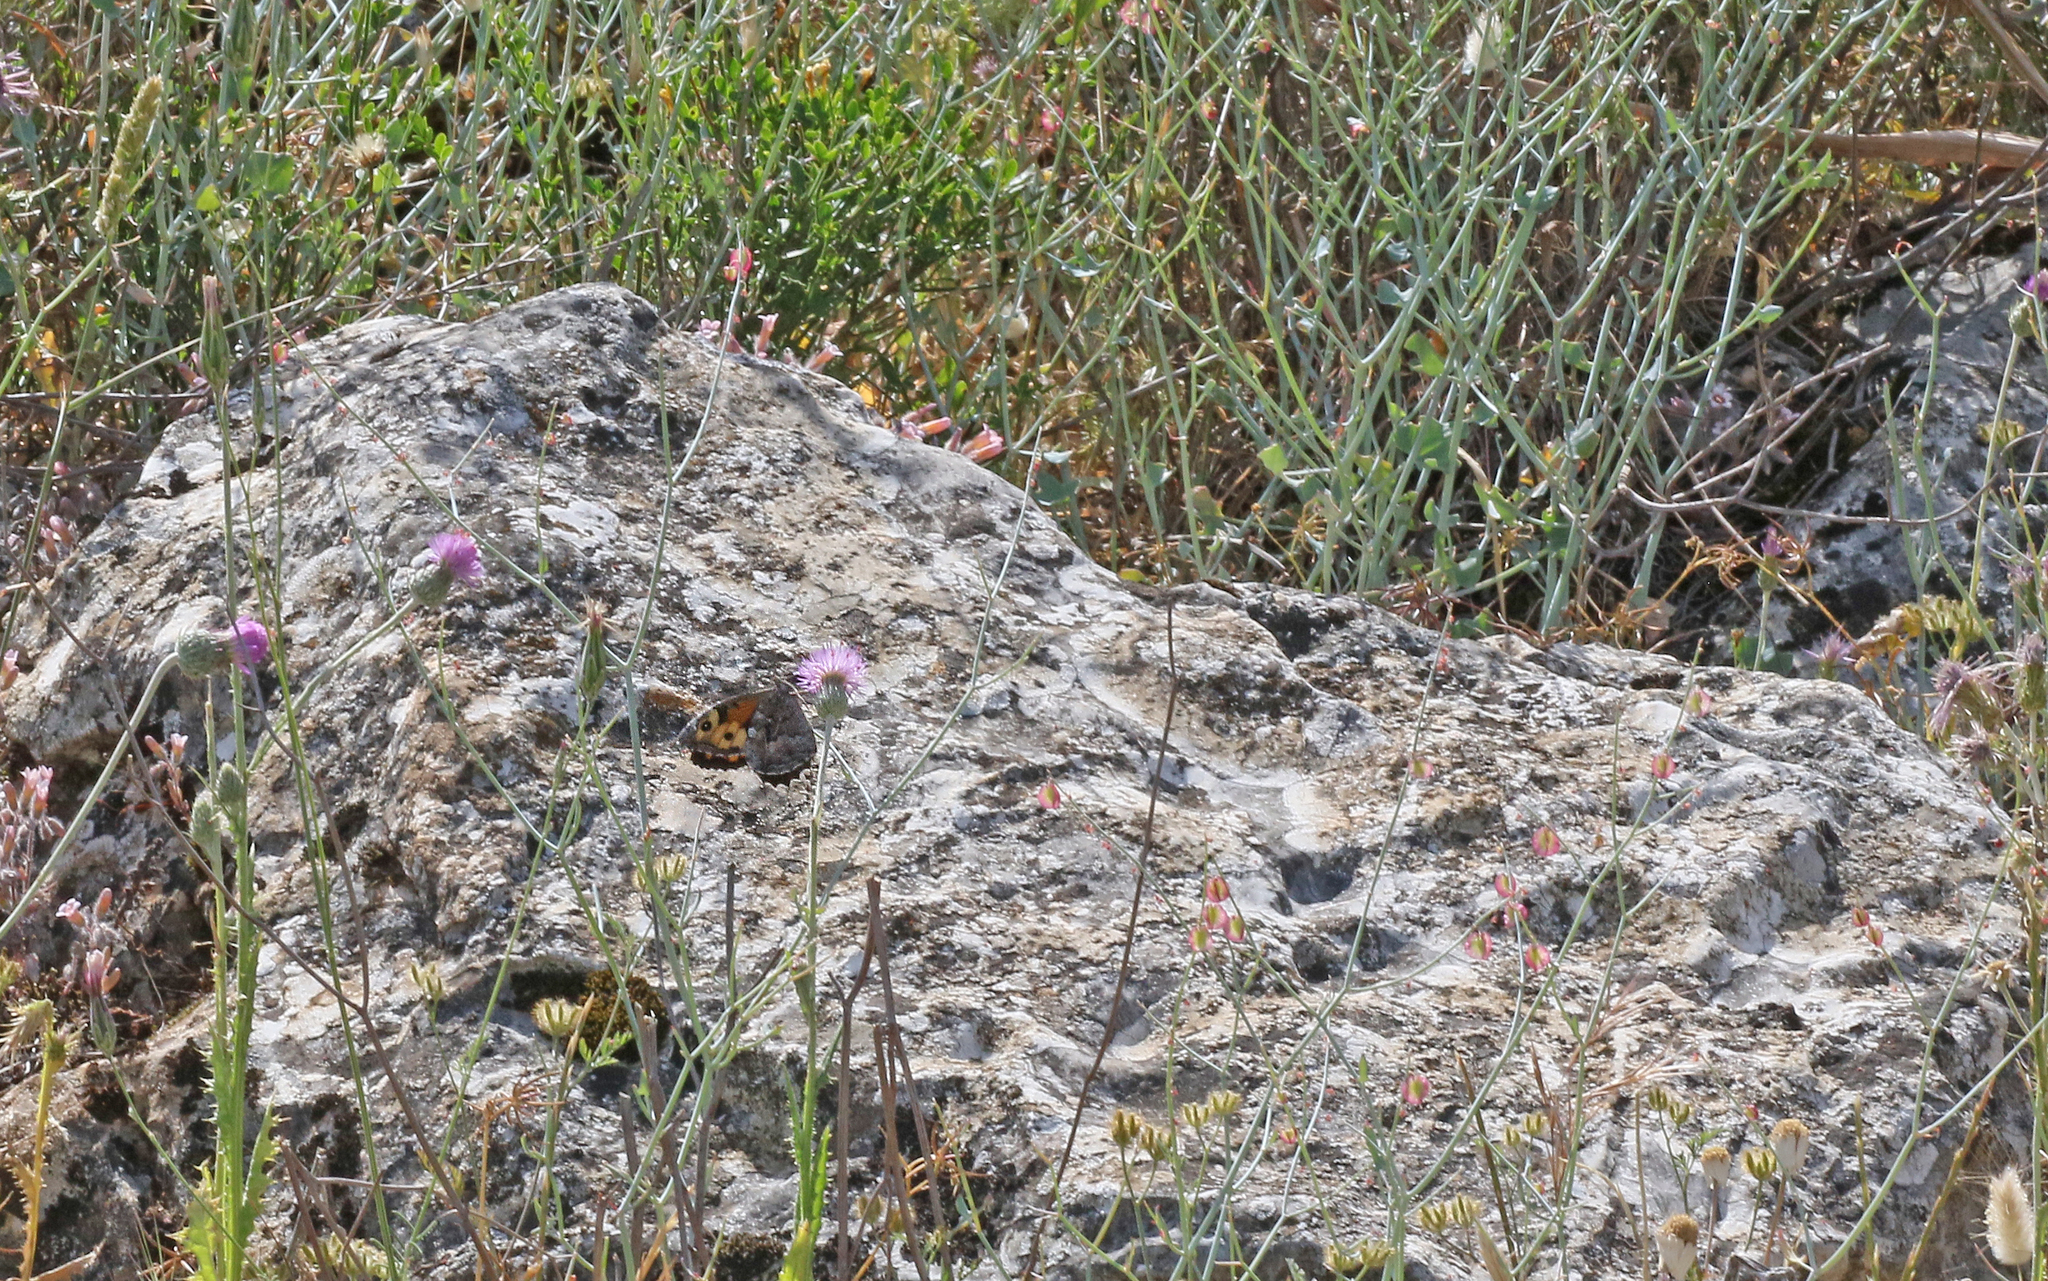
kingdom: Animalia
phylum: Arthropoda
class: Insecta
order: Lepidoptera
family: Nymphalidae
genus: Hipparchia
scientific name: Hipparchia semele
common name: Grayling
